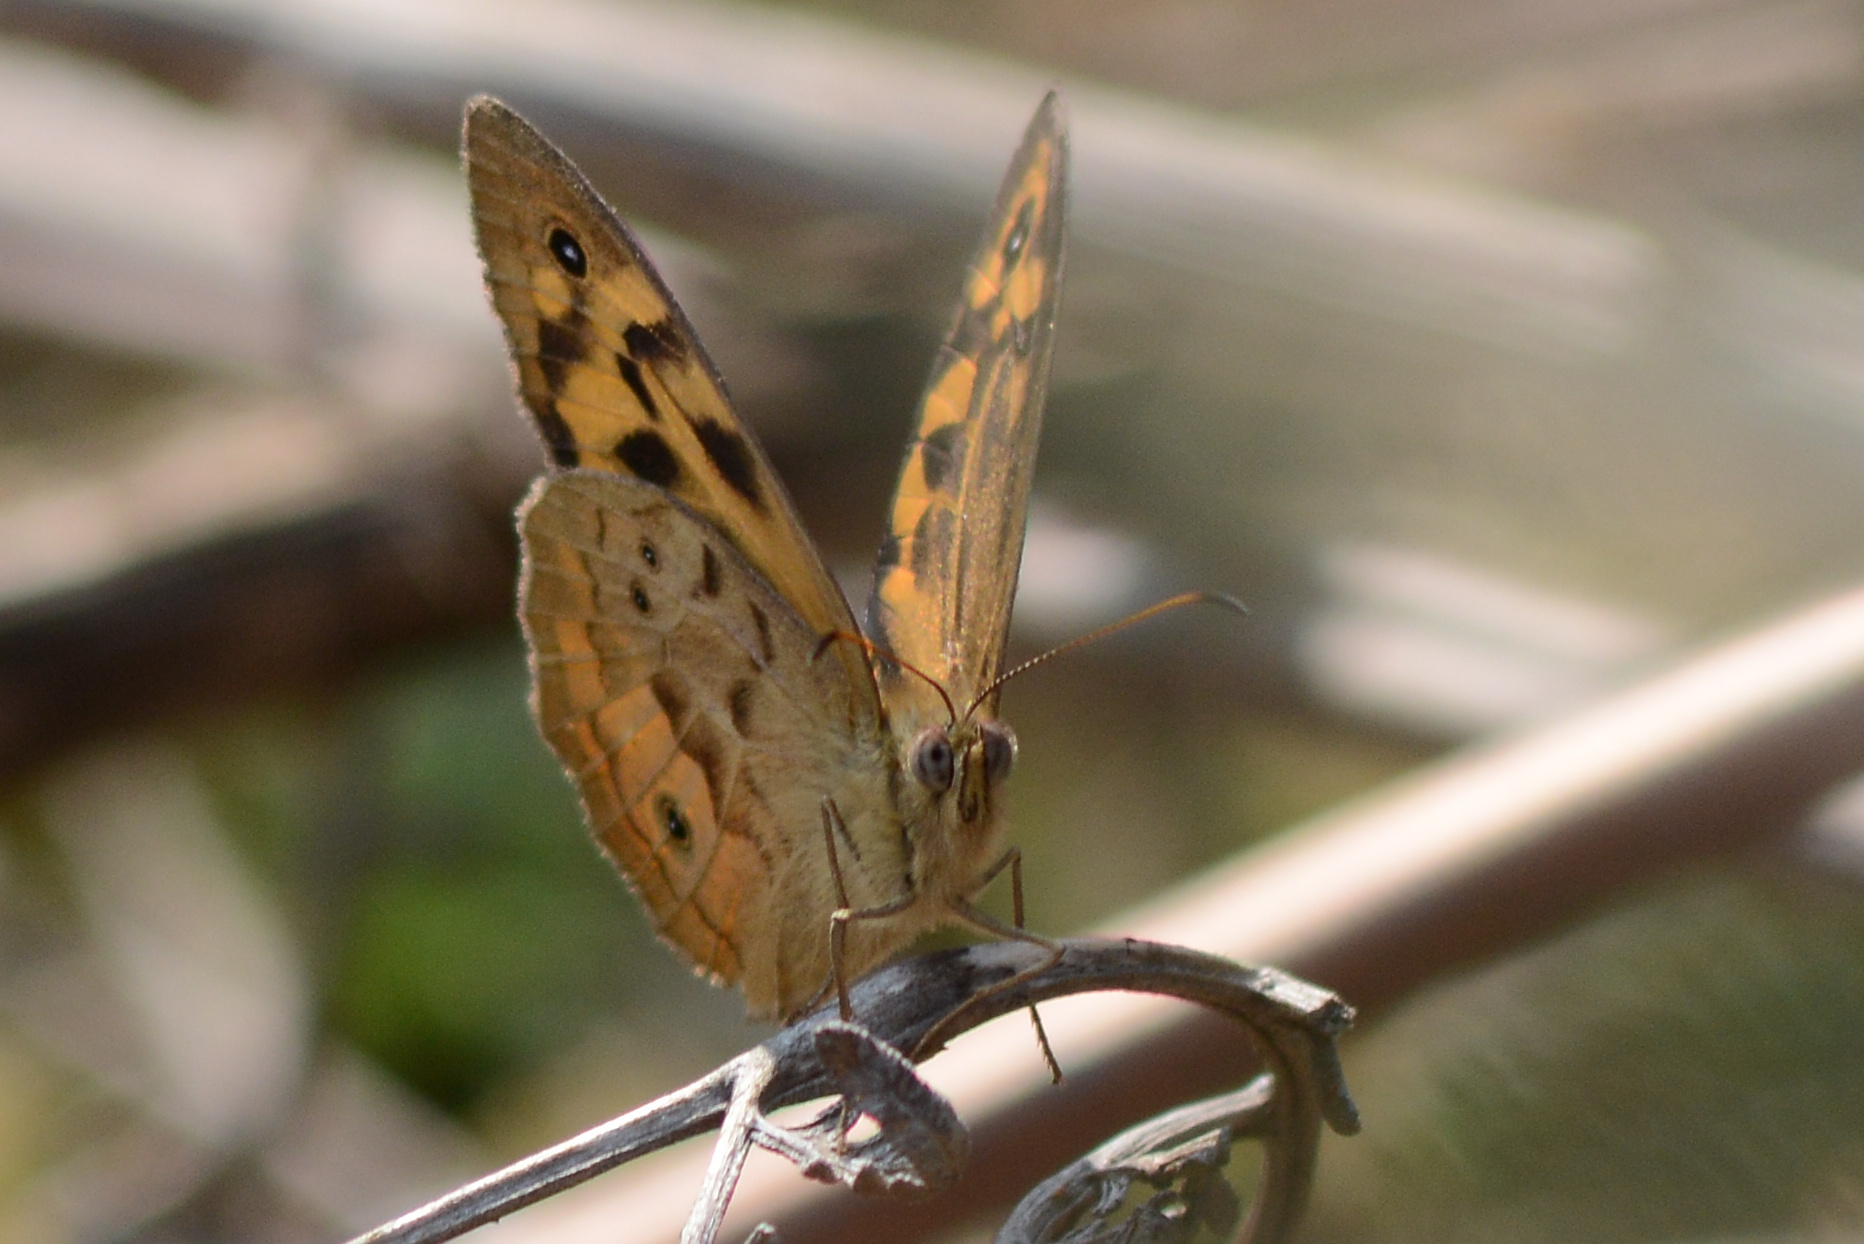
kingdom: Animalia
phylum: Arthropoda
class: Insecta
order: Lepidoptera
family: Nymphalidae
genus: Heteronympha
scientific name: Heteronympha merope
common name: Common brown
